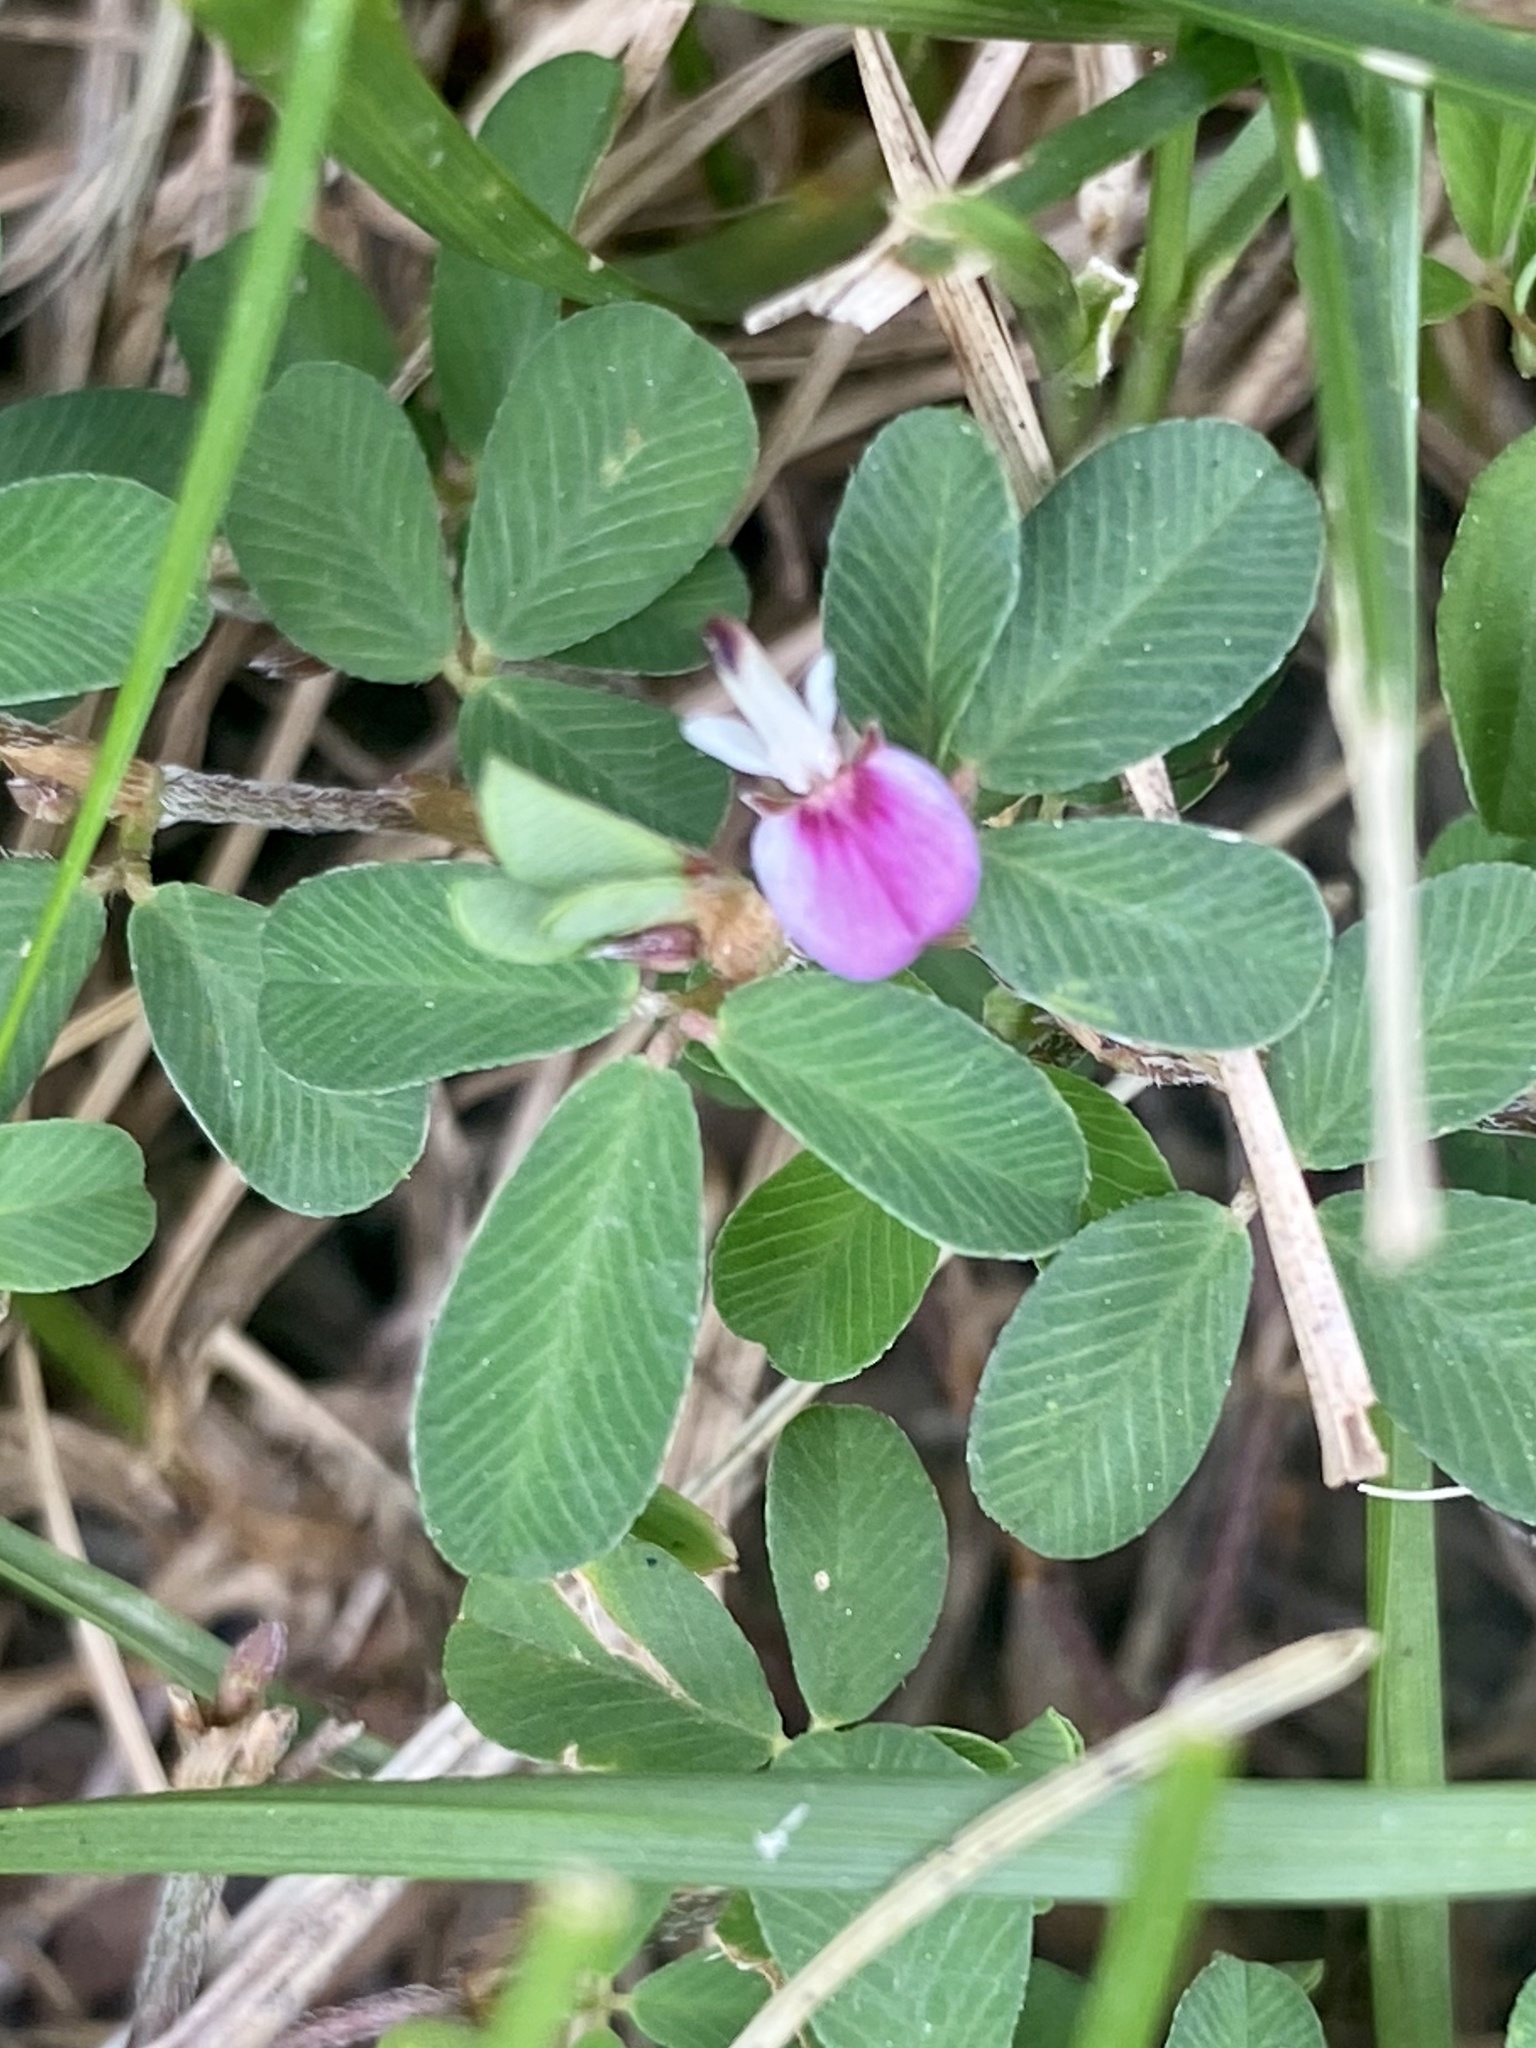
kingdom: Plantae
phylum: Tracheophyta
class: Magnoliopsida
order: Fabales
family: Fabaceae
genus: Kummerowia
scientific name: Kummerowia striata
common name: Japanese clover
